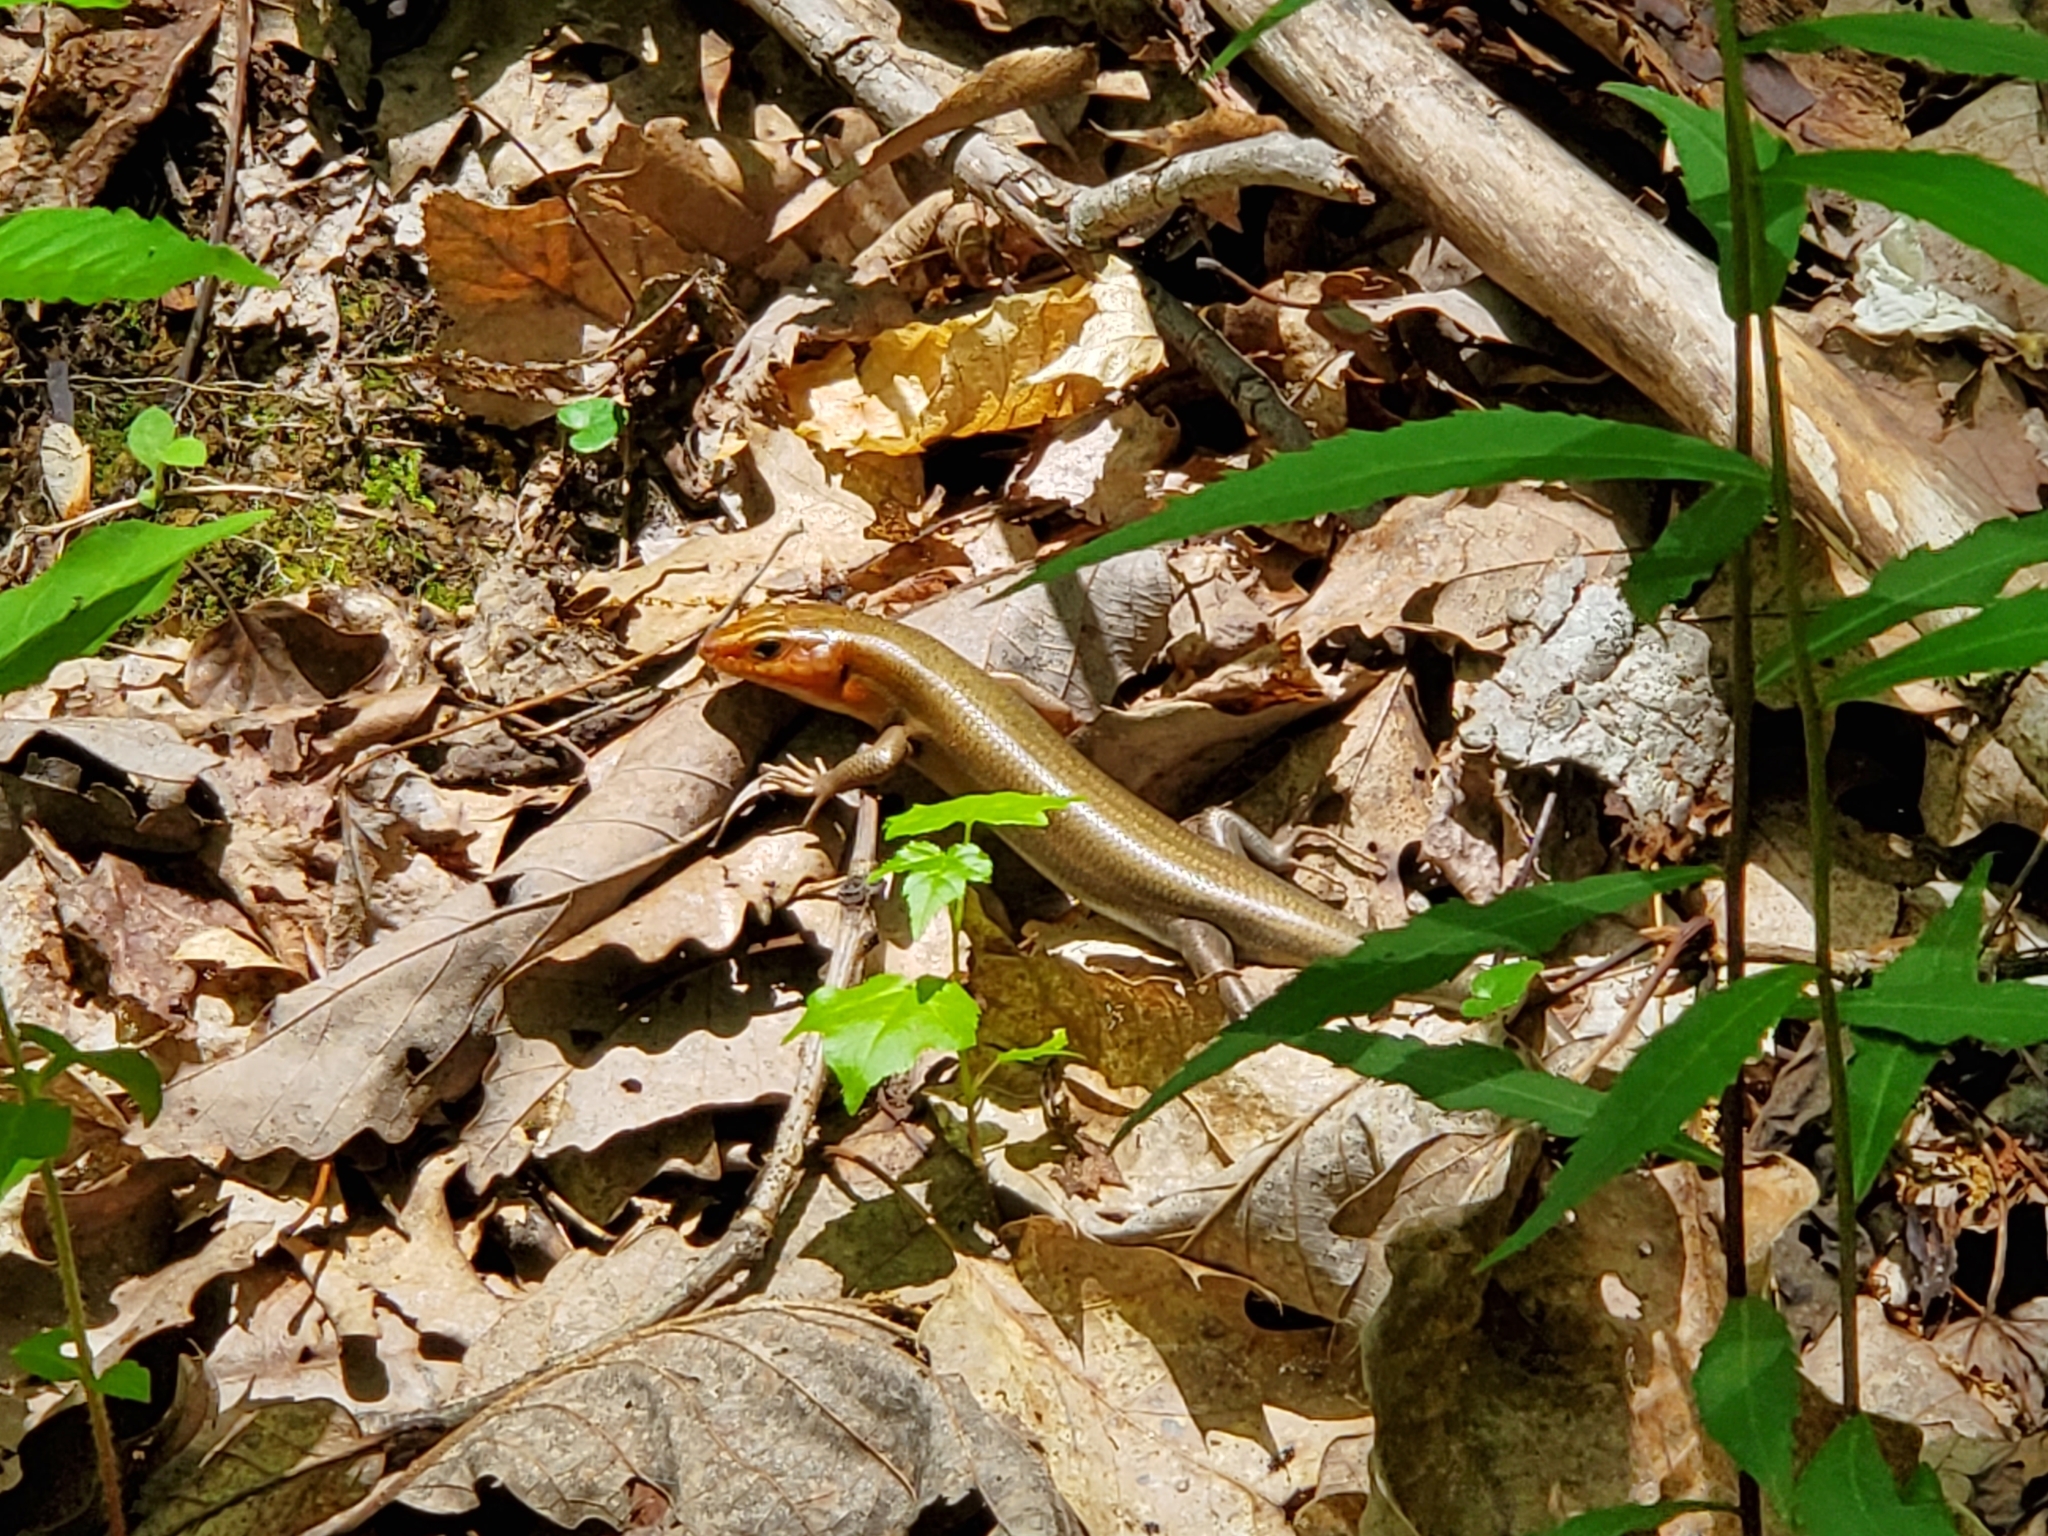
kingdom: Animalia
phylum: Chordata
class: Squamata
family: Scincidae
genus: Plestiodon
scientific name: Plestiodon laticeps
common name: Broadhead skink
